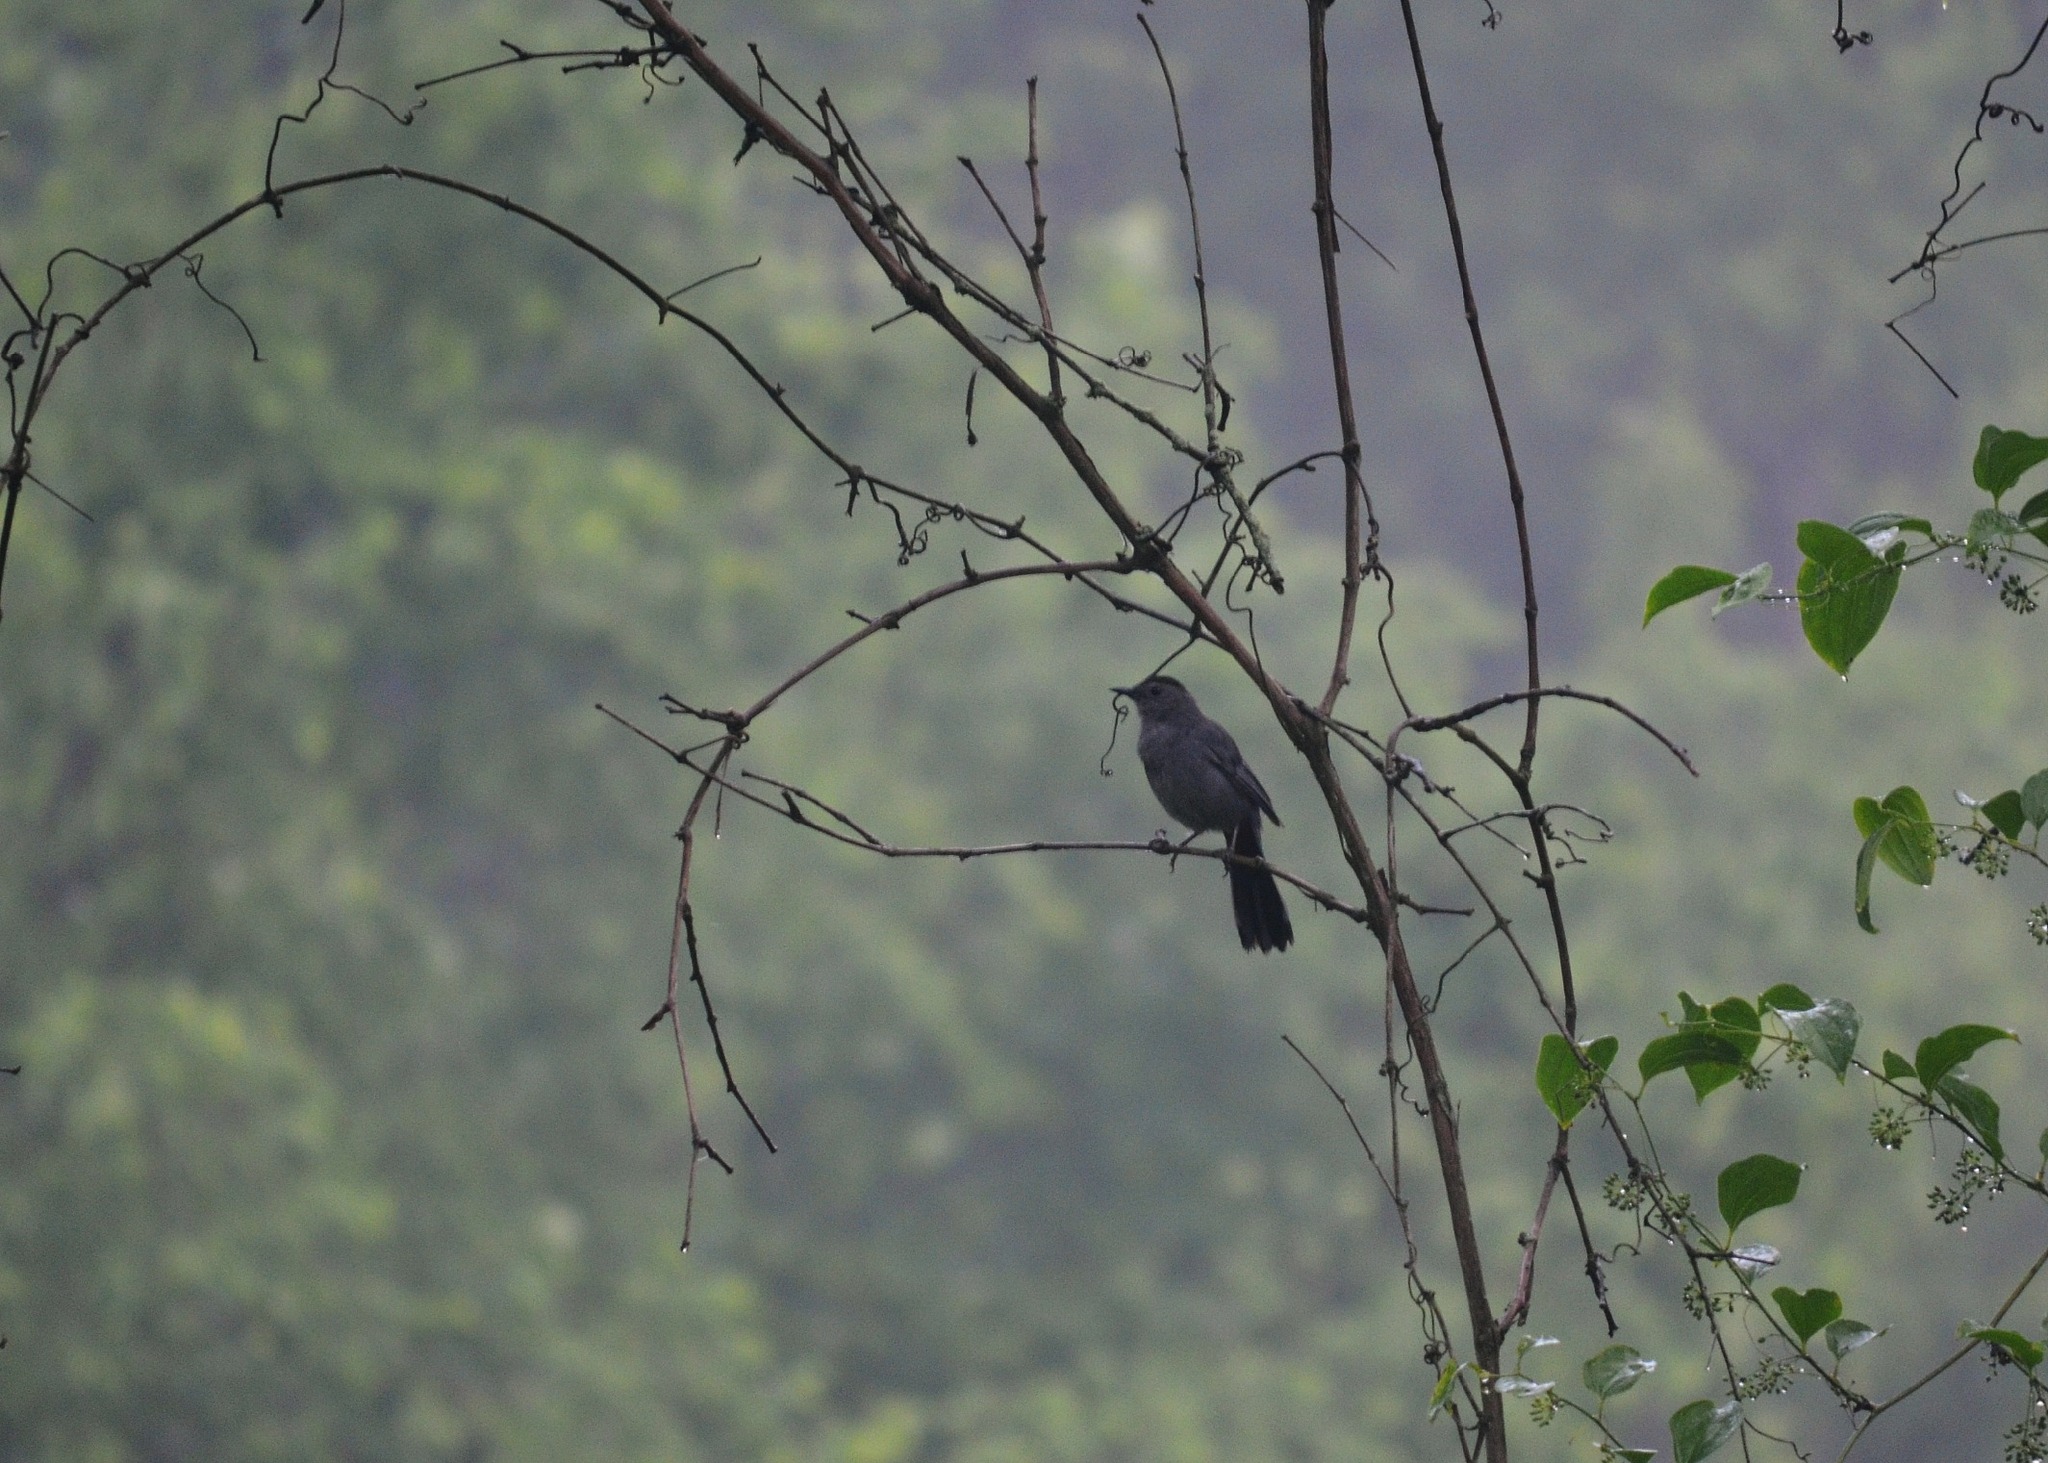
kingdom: Animalia
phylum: Chordata
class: Aves
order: Passeriformes
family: Mimidae
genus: Dumetella
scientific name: Dumetella carolinensis
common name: Gray catbird
